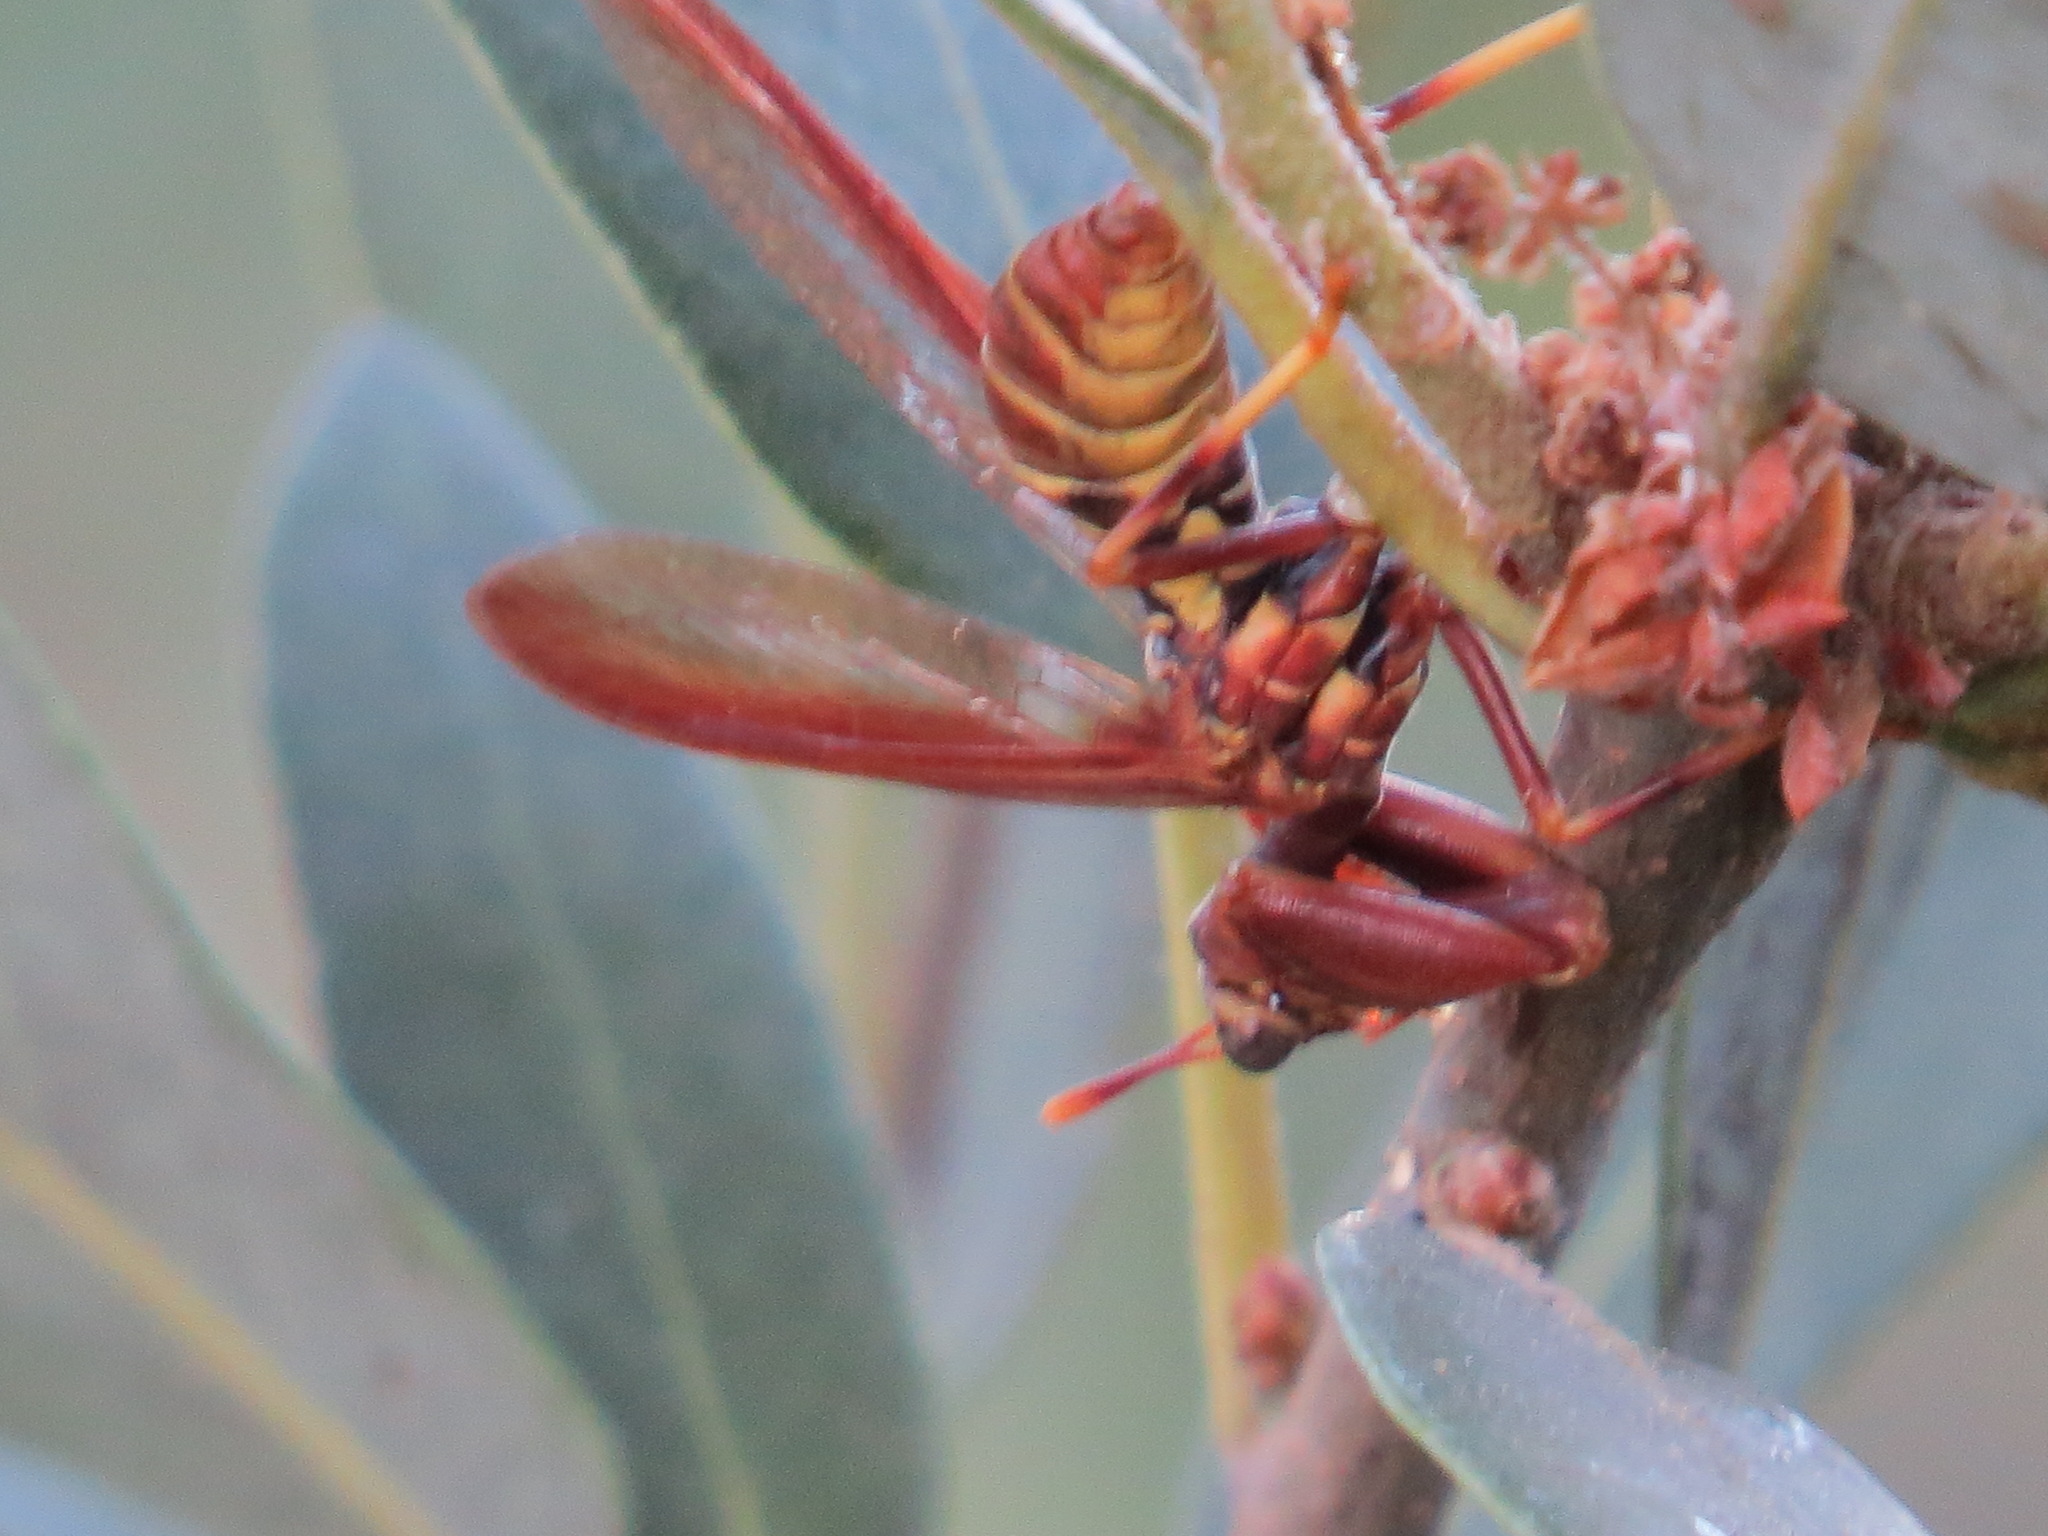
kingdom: Animalia
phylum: Arthropoda
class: Insecta
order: Neuroptera
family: Mantispidae
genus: Climaciella
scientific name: Climaciella brunnea
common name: Brown wasp mantidfly
